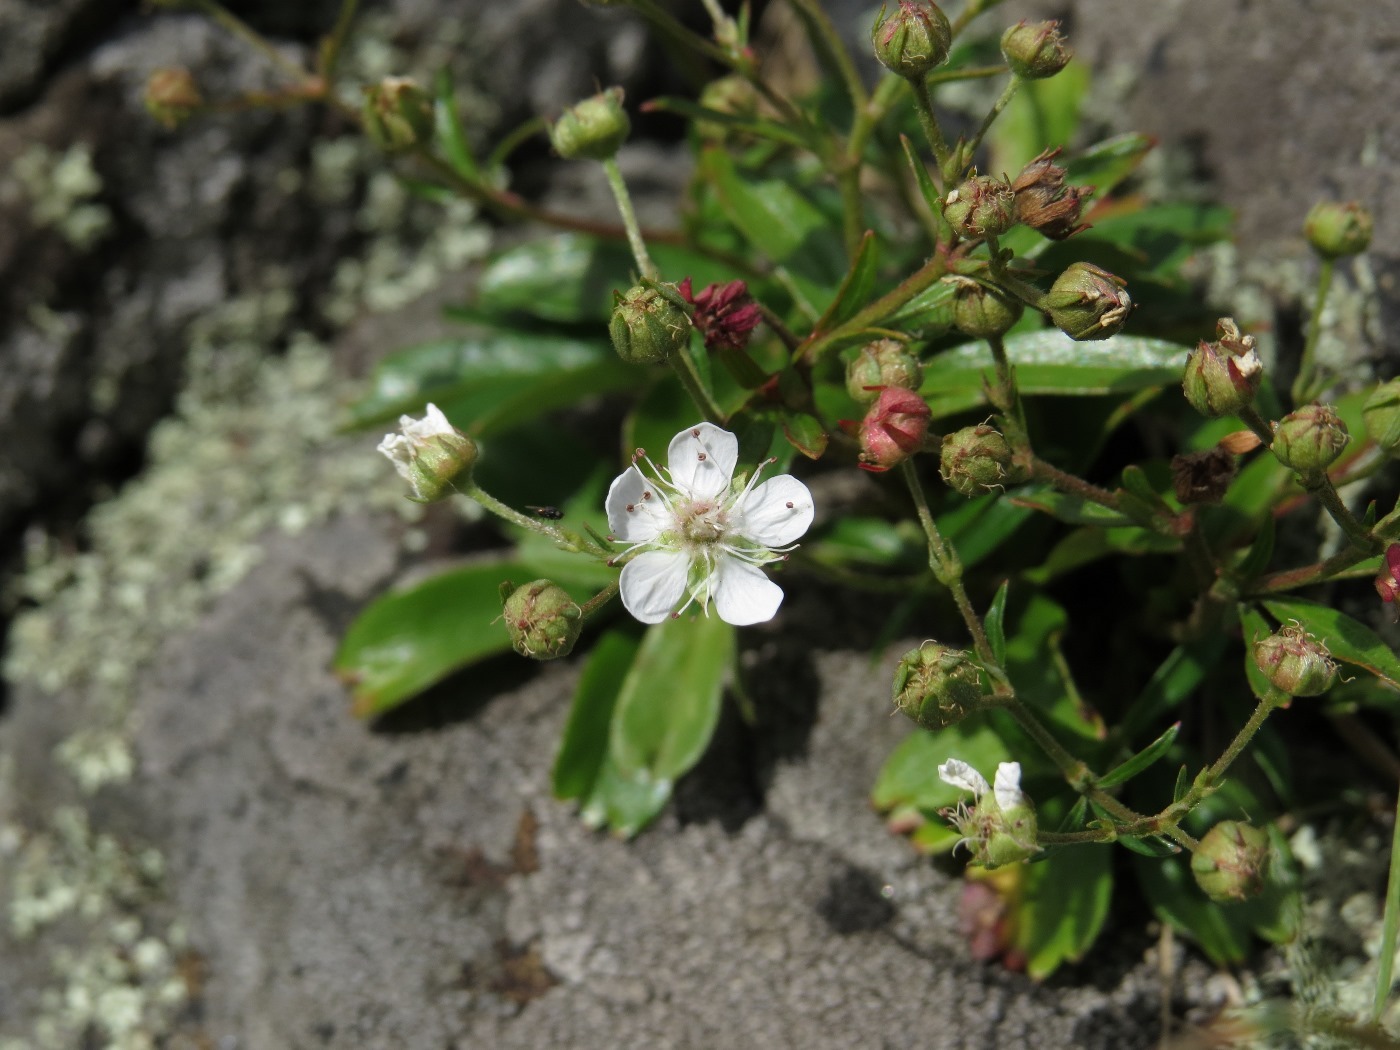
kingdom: Plantae
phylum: Tracheophyta
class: Magnoliopsida
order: Rosales
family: Rosaceae
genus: Sibbaldia
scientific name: Sibbaldia tridentata
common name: Three-toothed cinquefoil
